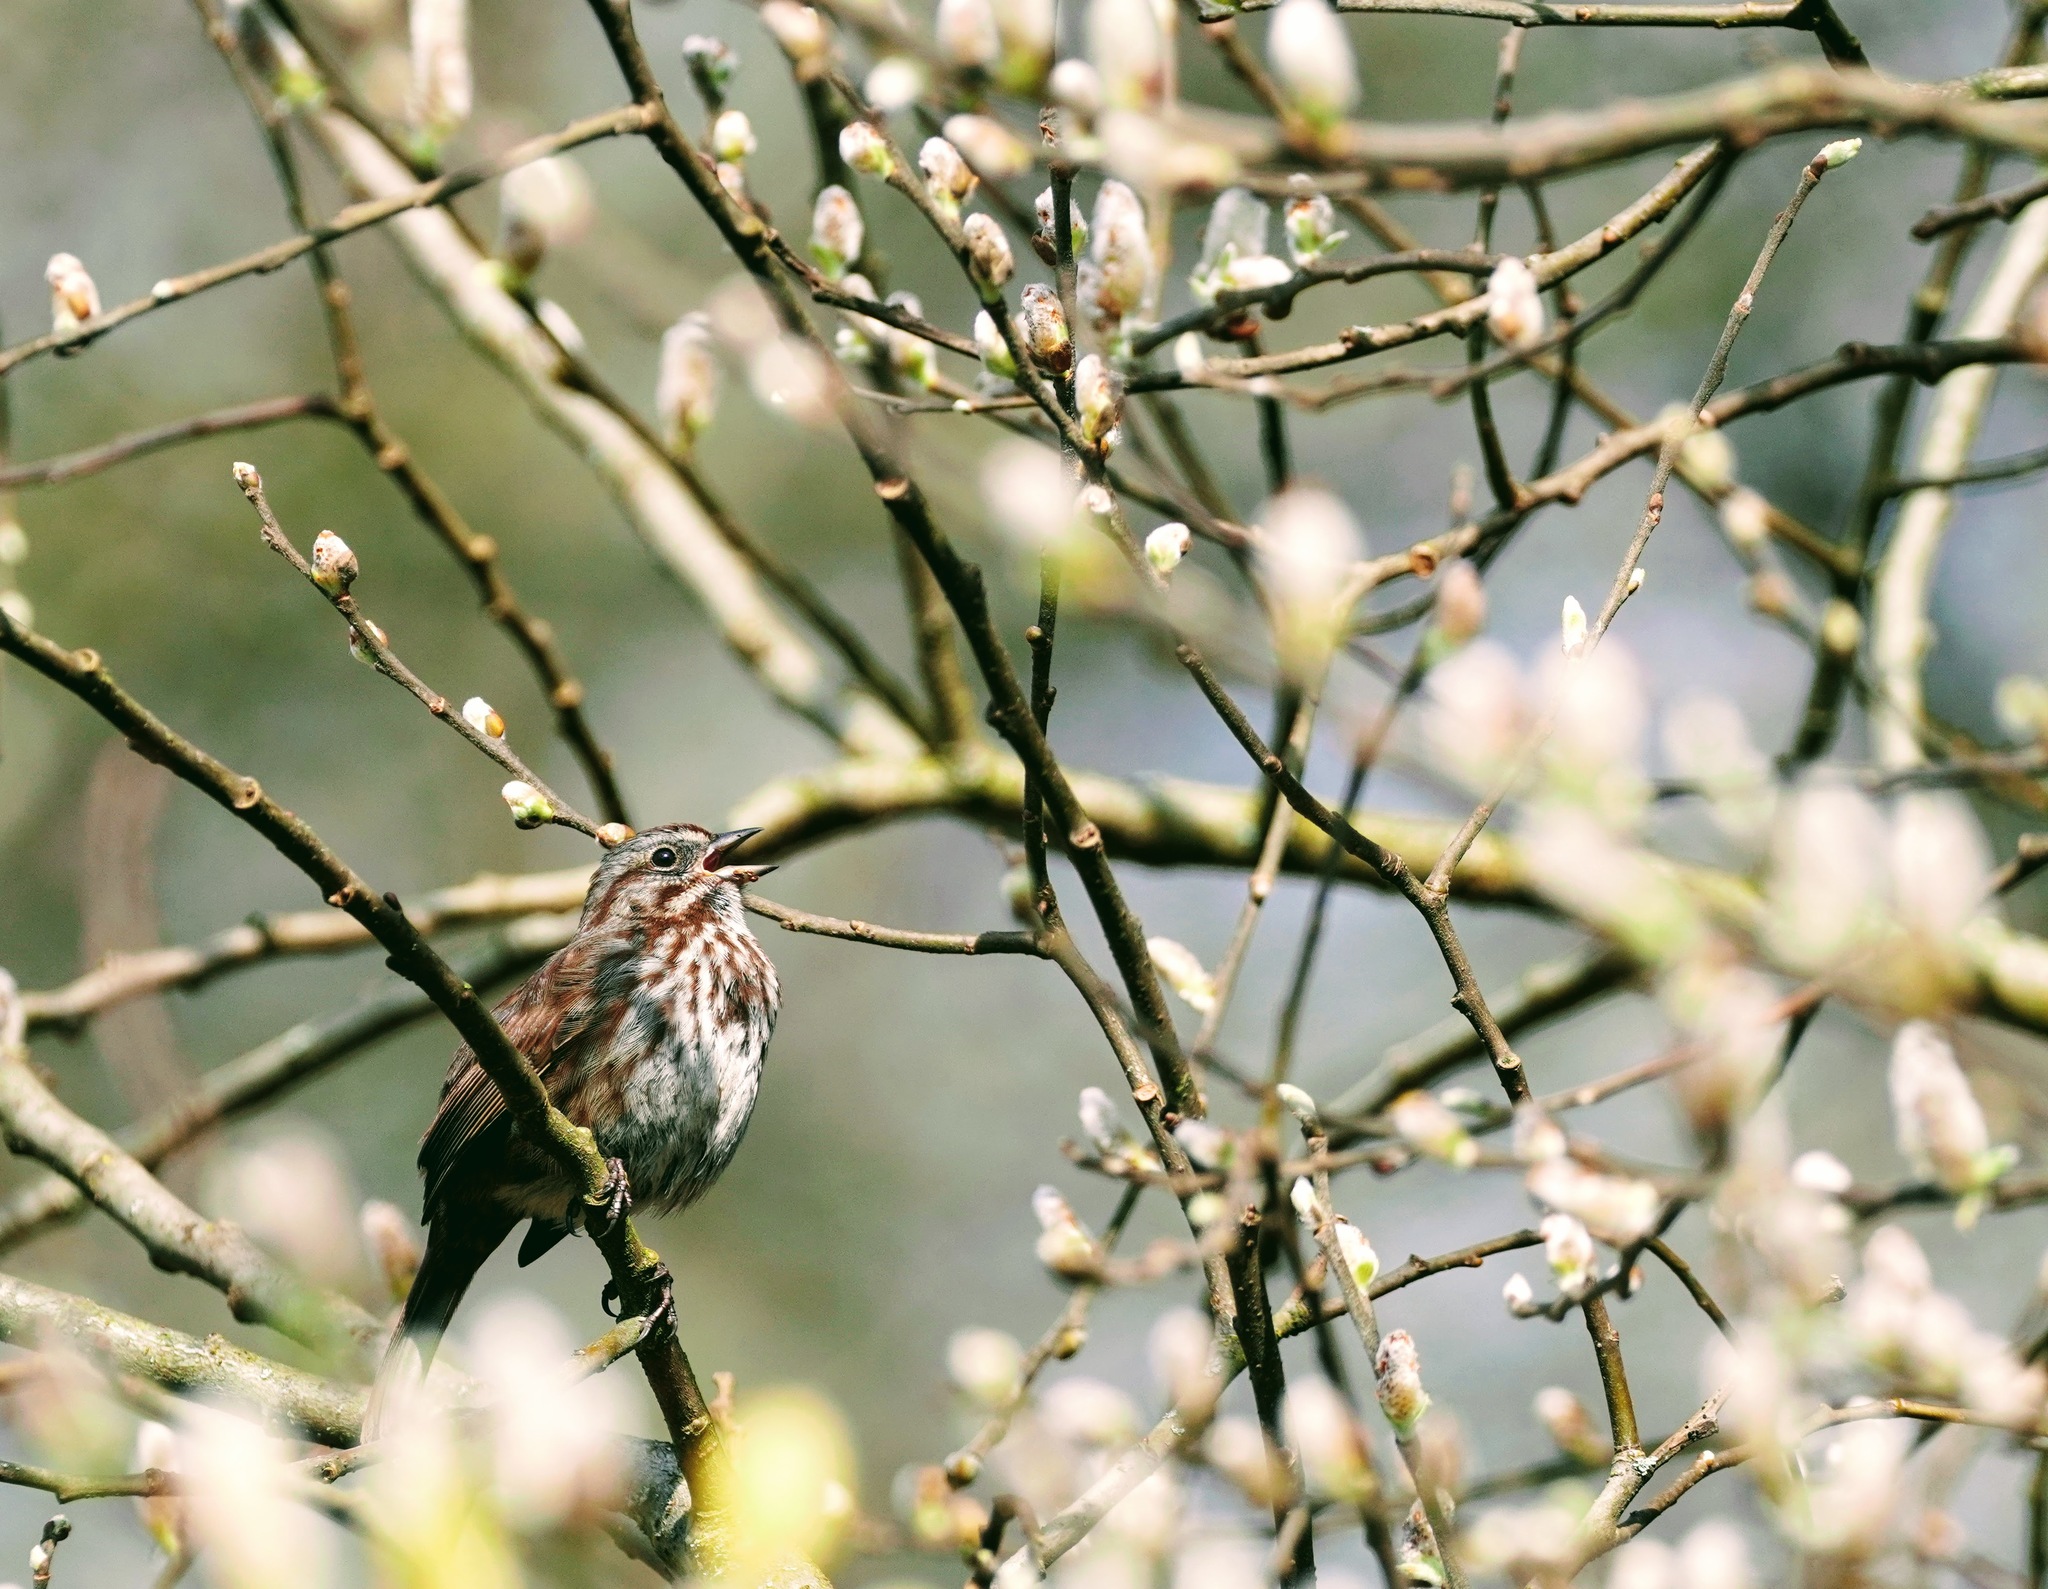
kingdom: Animalia
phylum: Chordata
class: Aves
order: Passeriformes
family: Passerellidae
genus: Melospiza
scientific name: Melospiza melodia
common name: Song sparrow
